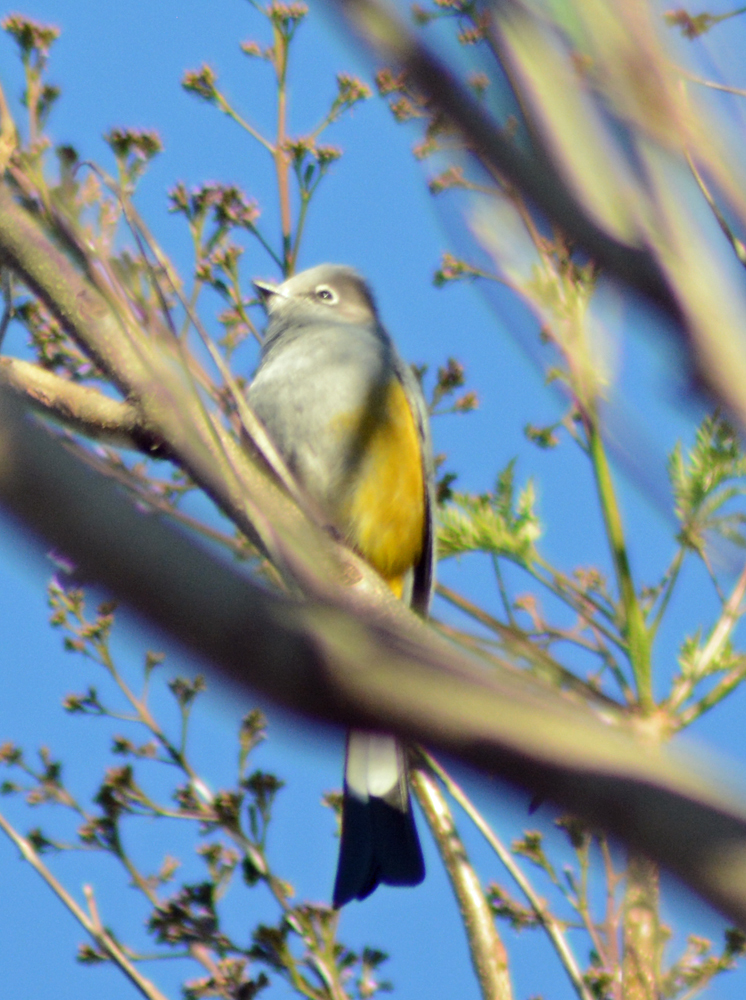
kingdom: Animalia
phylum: Chordata
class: Aves
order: Passeriformes
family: Ptilogonatidae
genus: Ptilogonys
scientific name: Ptilogonys cinereus
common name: Gray silky-flycatcher
